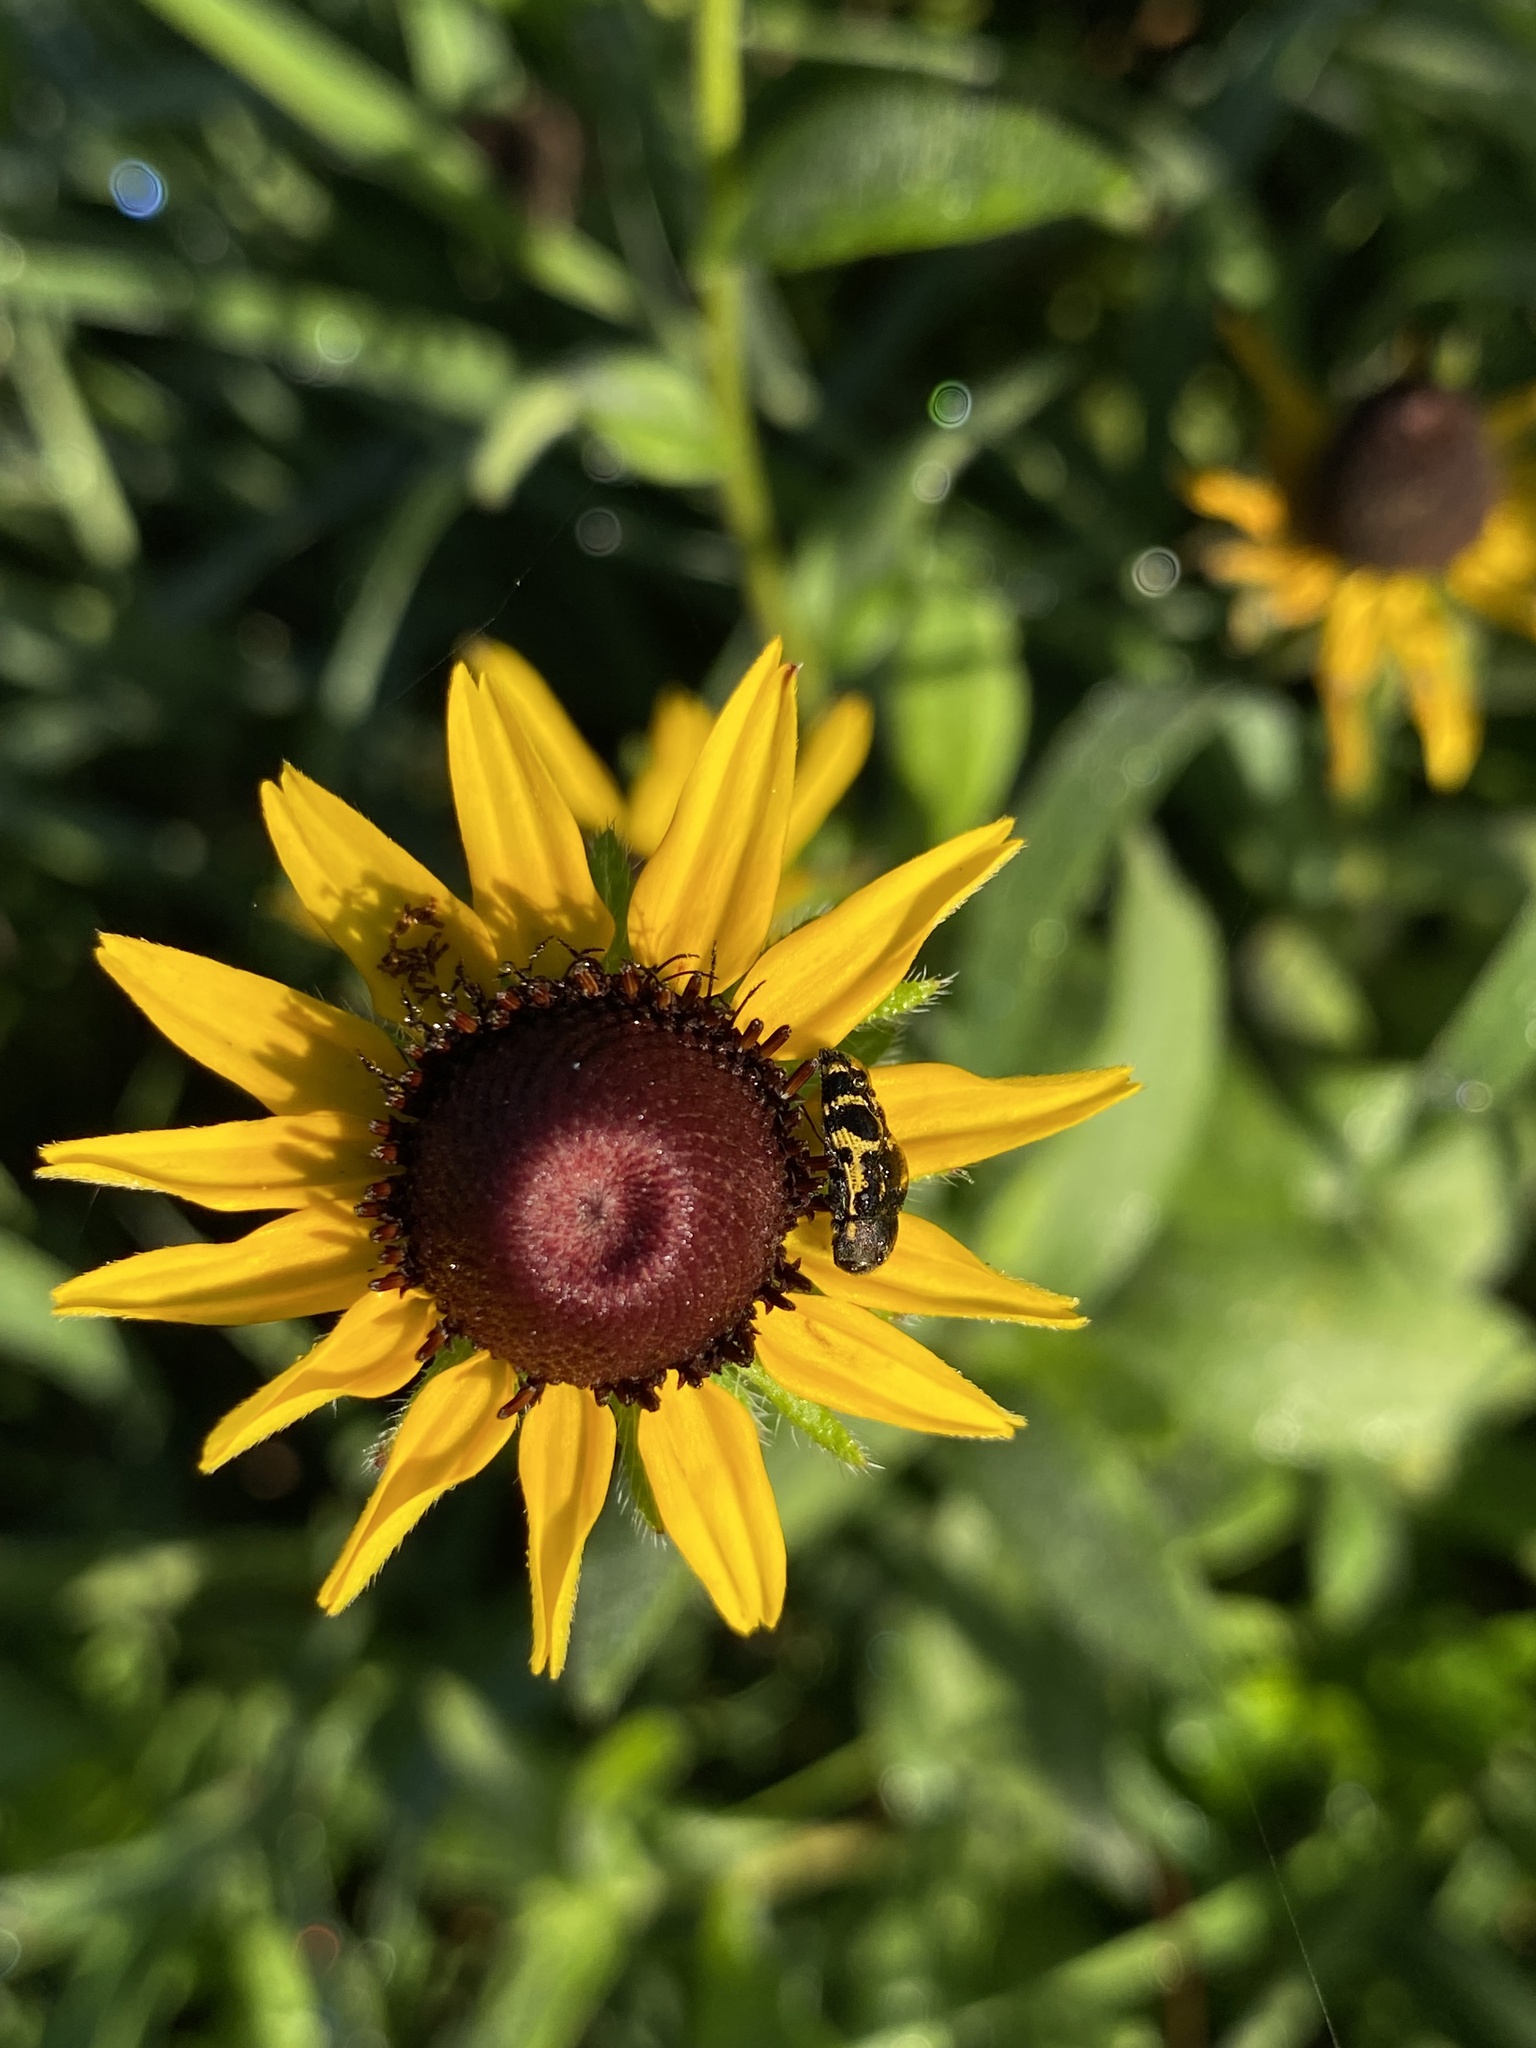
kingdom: Animalia
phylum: Arthropoda
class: Insecta
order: Coleoptera
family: Buprestidae
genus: Acmaeodera
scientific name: Acmaeodera pulchella
